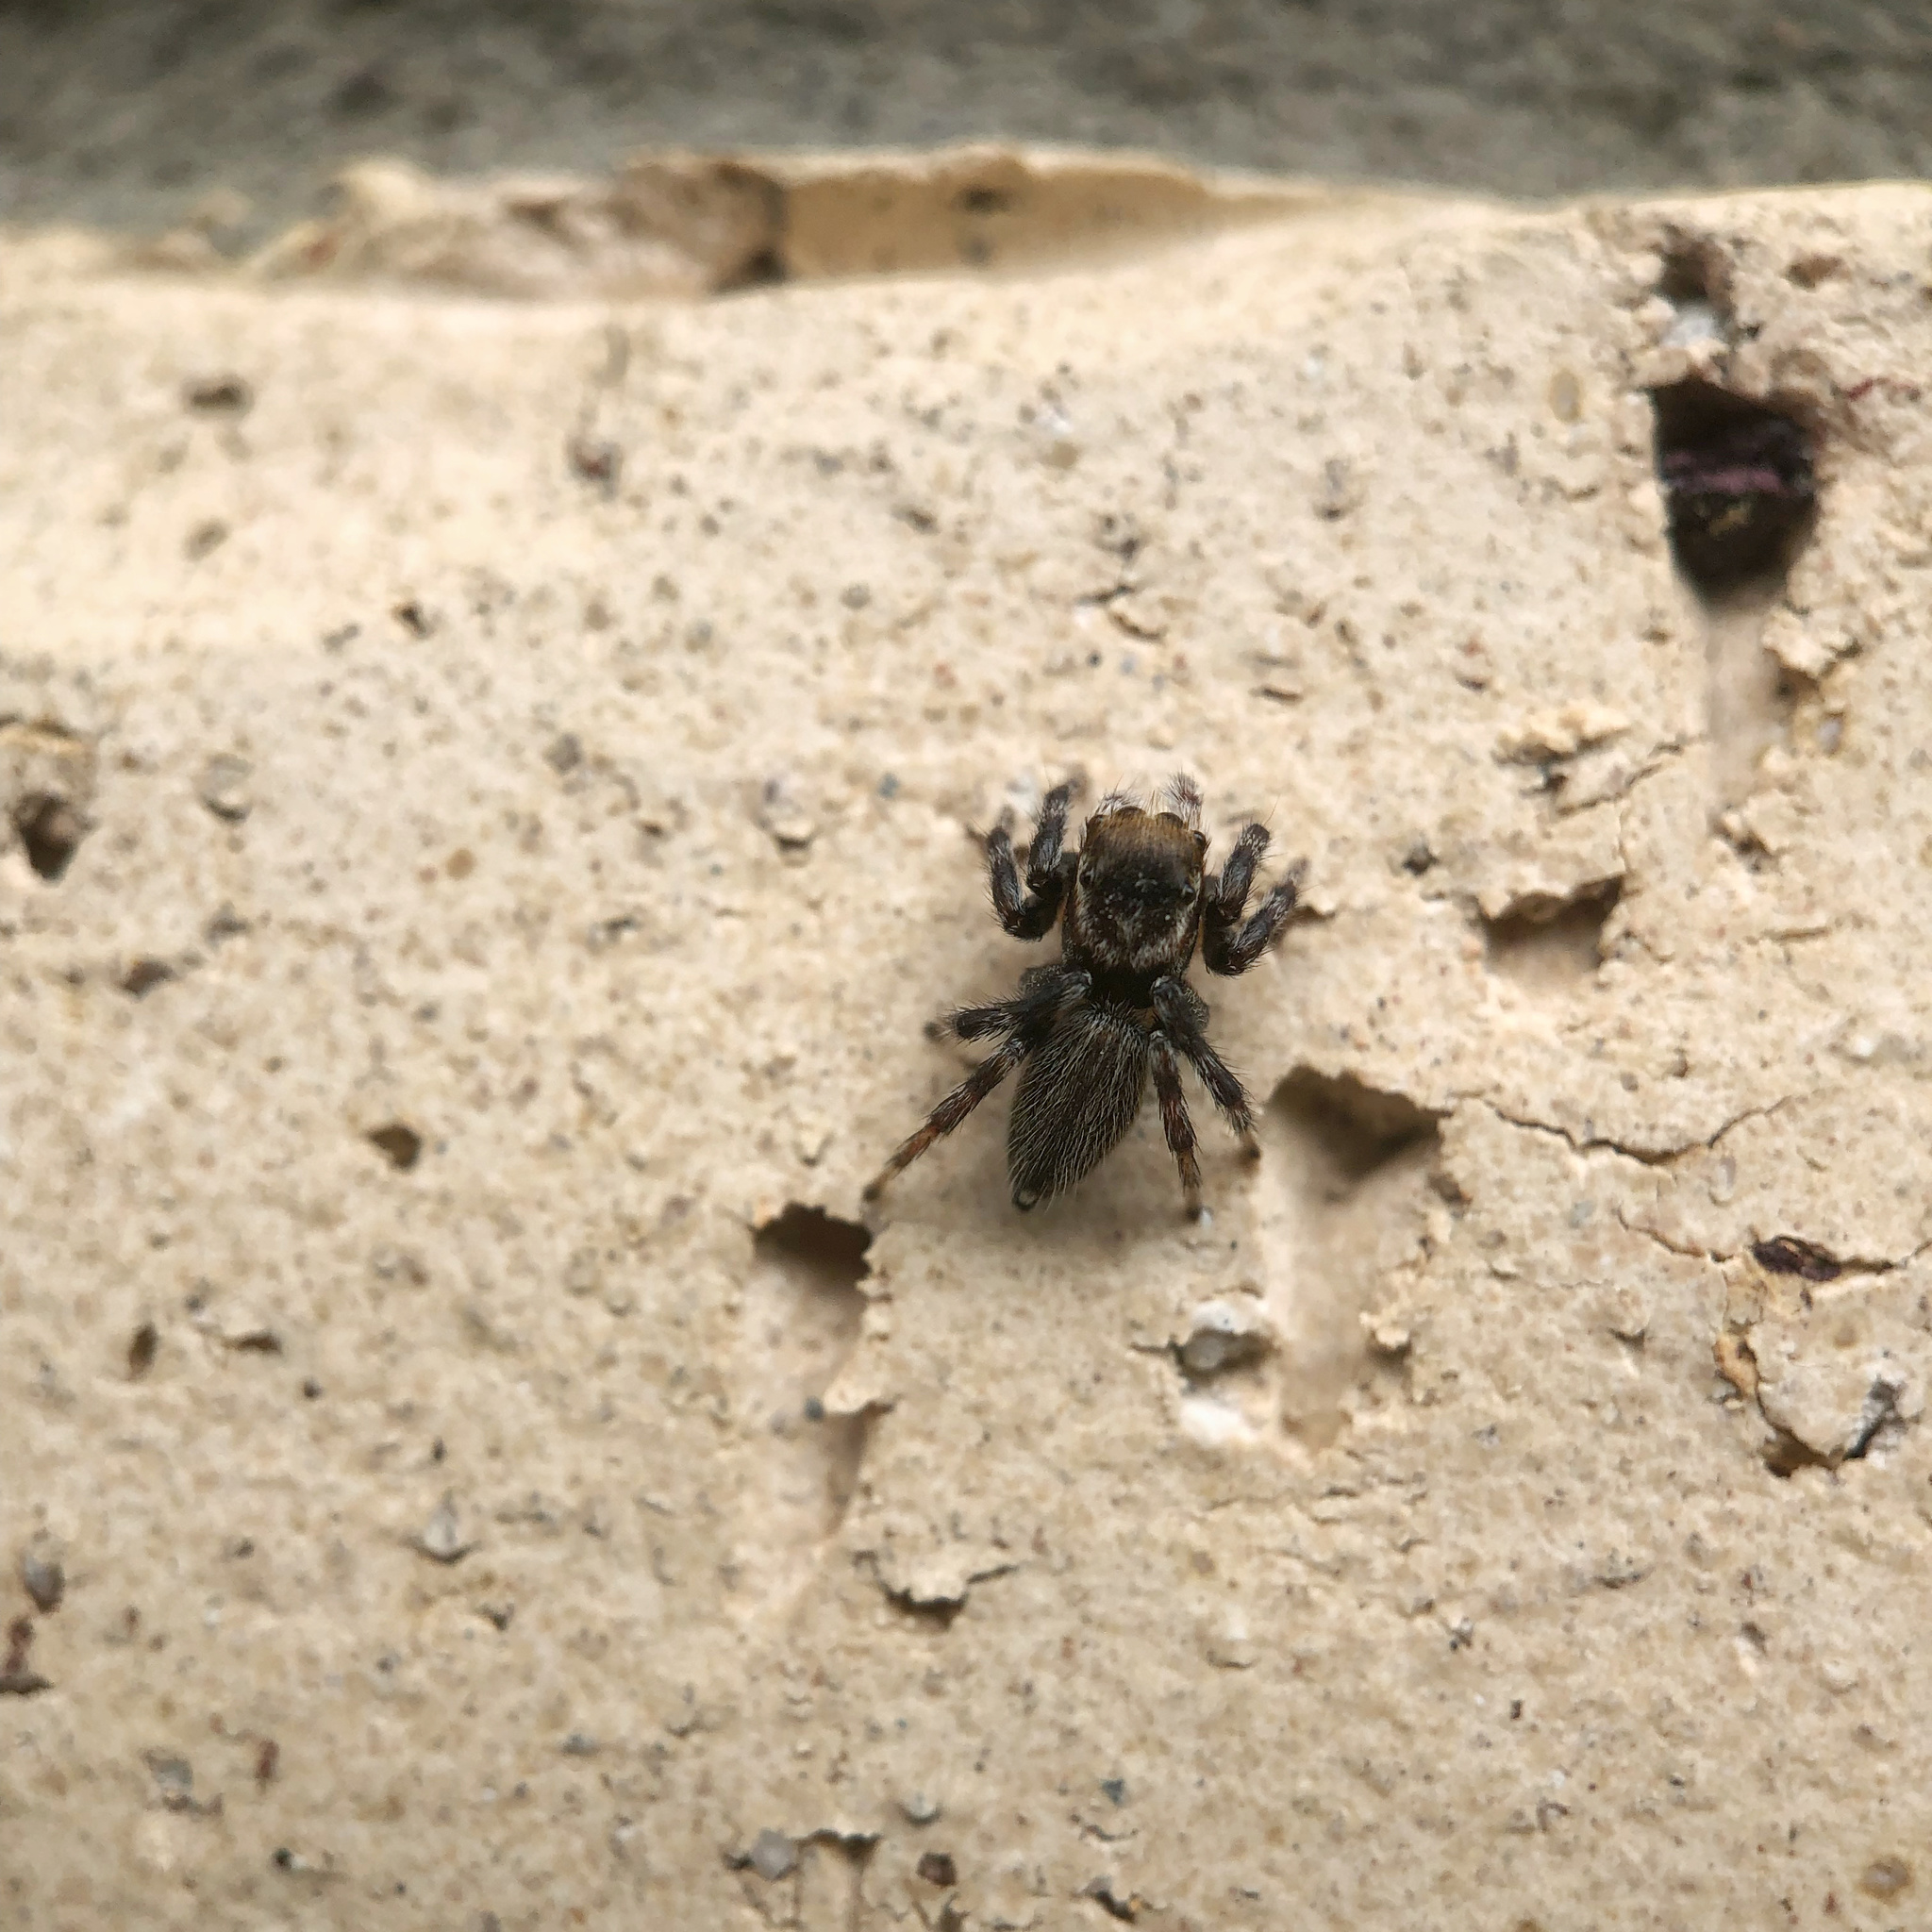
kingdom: Animalia
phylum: Arthropoda
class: Arachnida
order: Araneae
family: Salticidae
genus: Maratus
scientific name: Maratus griseus
